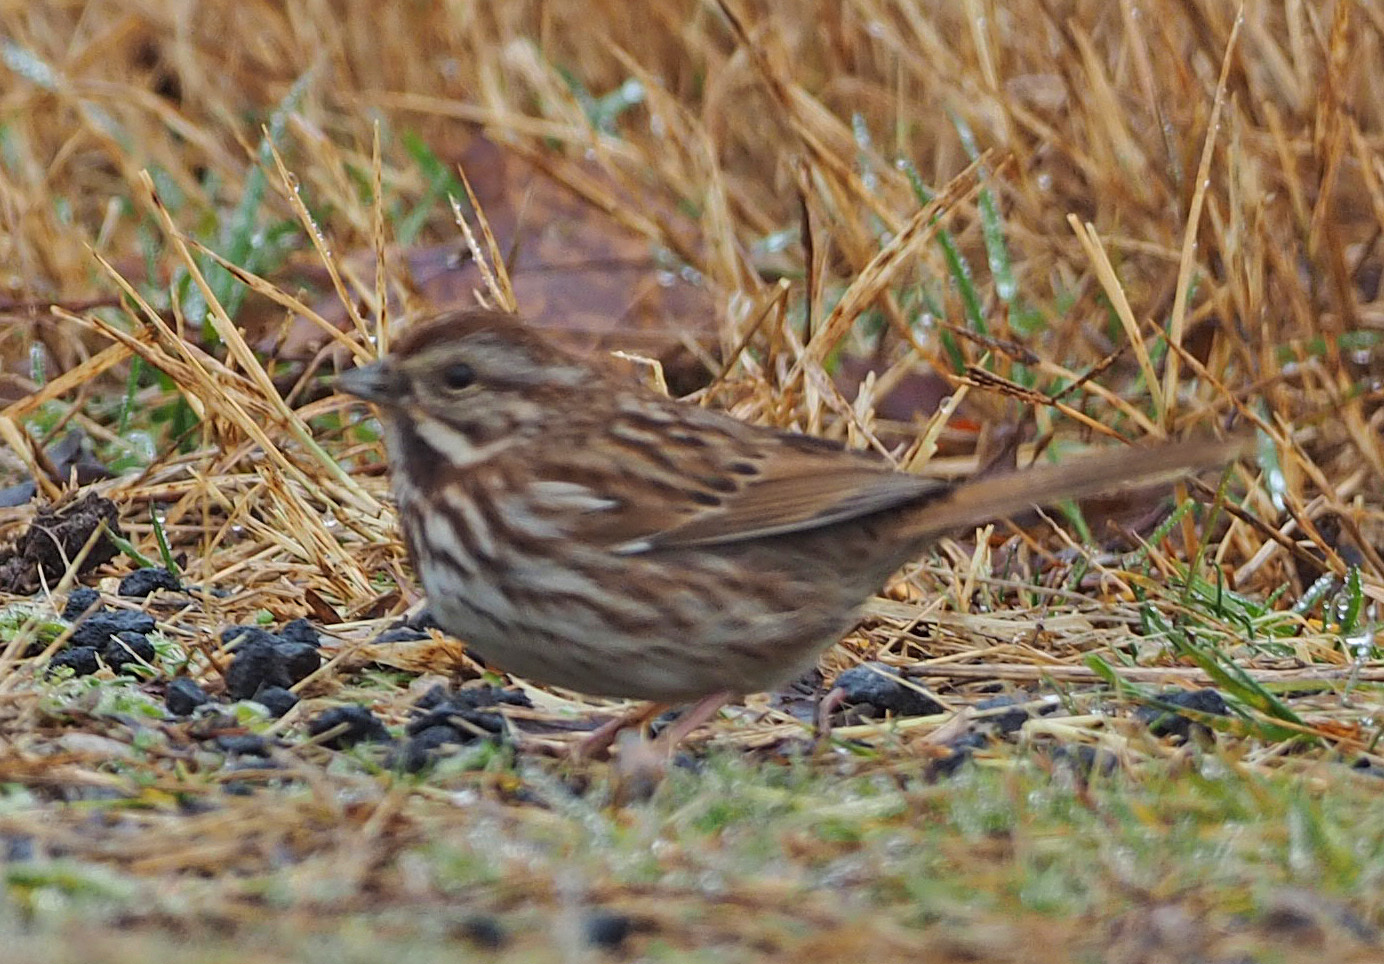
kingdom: Animalia
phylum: Chordata
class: Aves
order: Passeriformes
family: Passerellidae
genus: Melospiza
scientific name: Melospiza melodia
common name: Song sparrow
